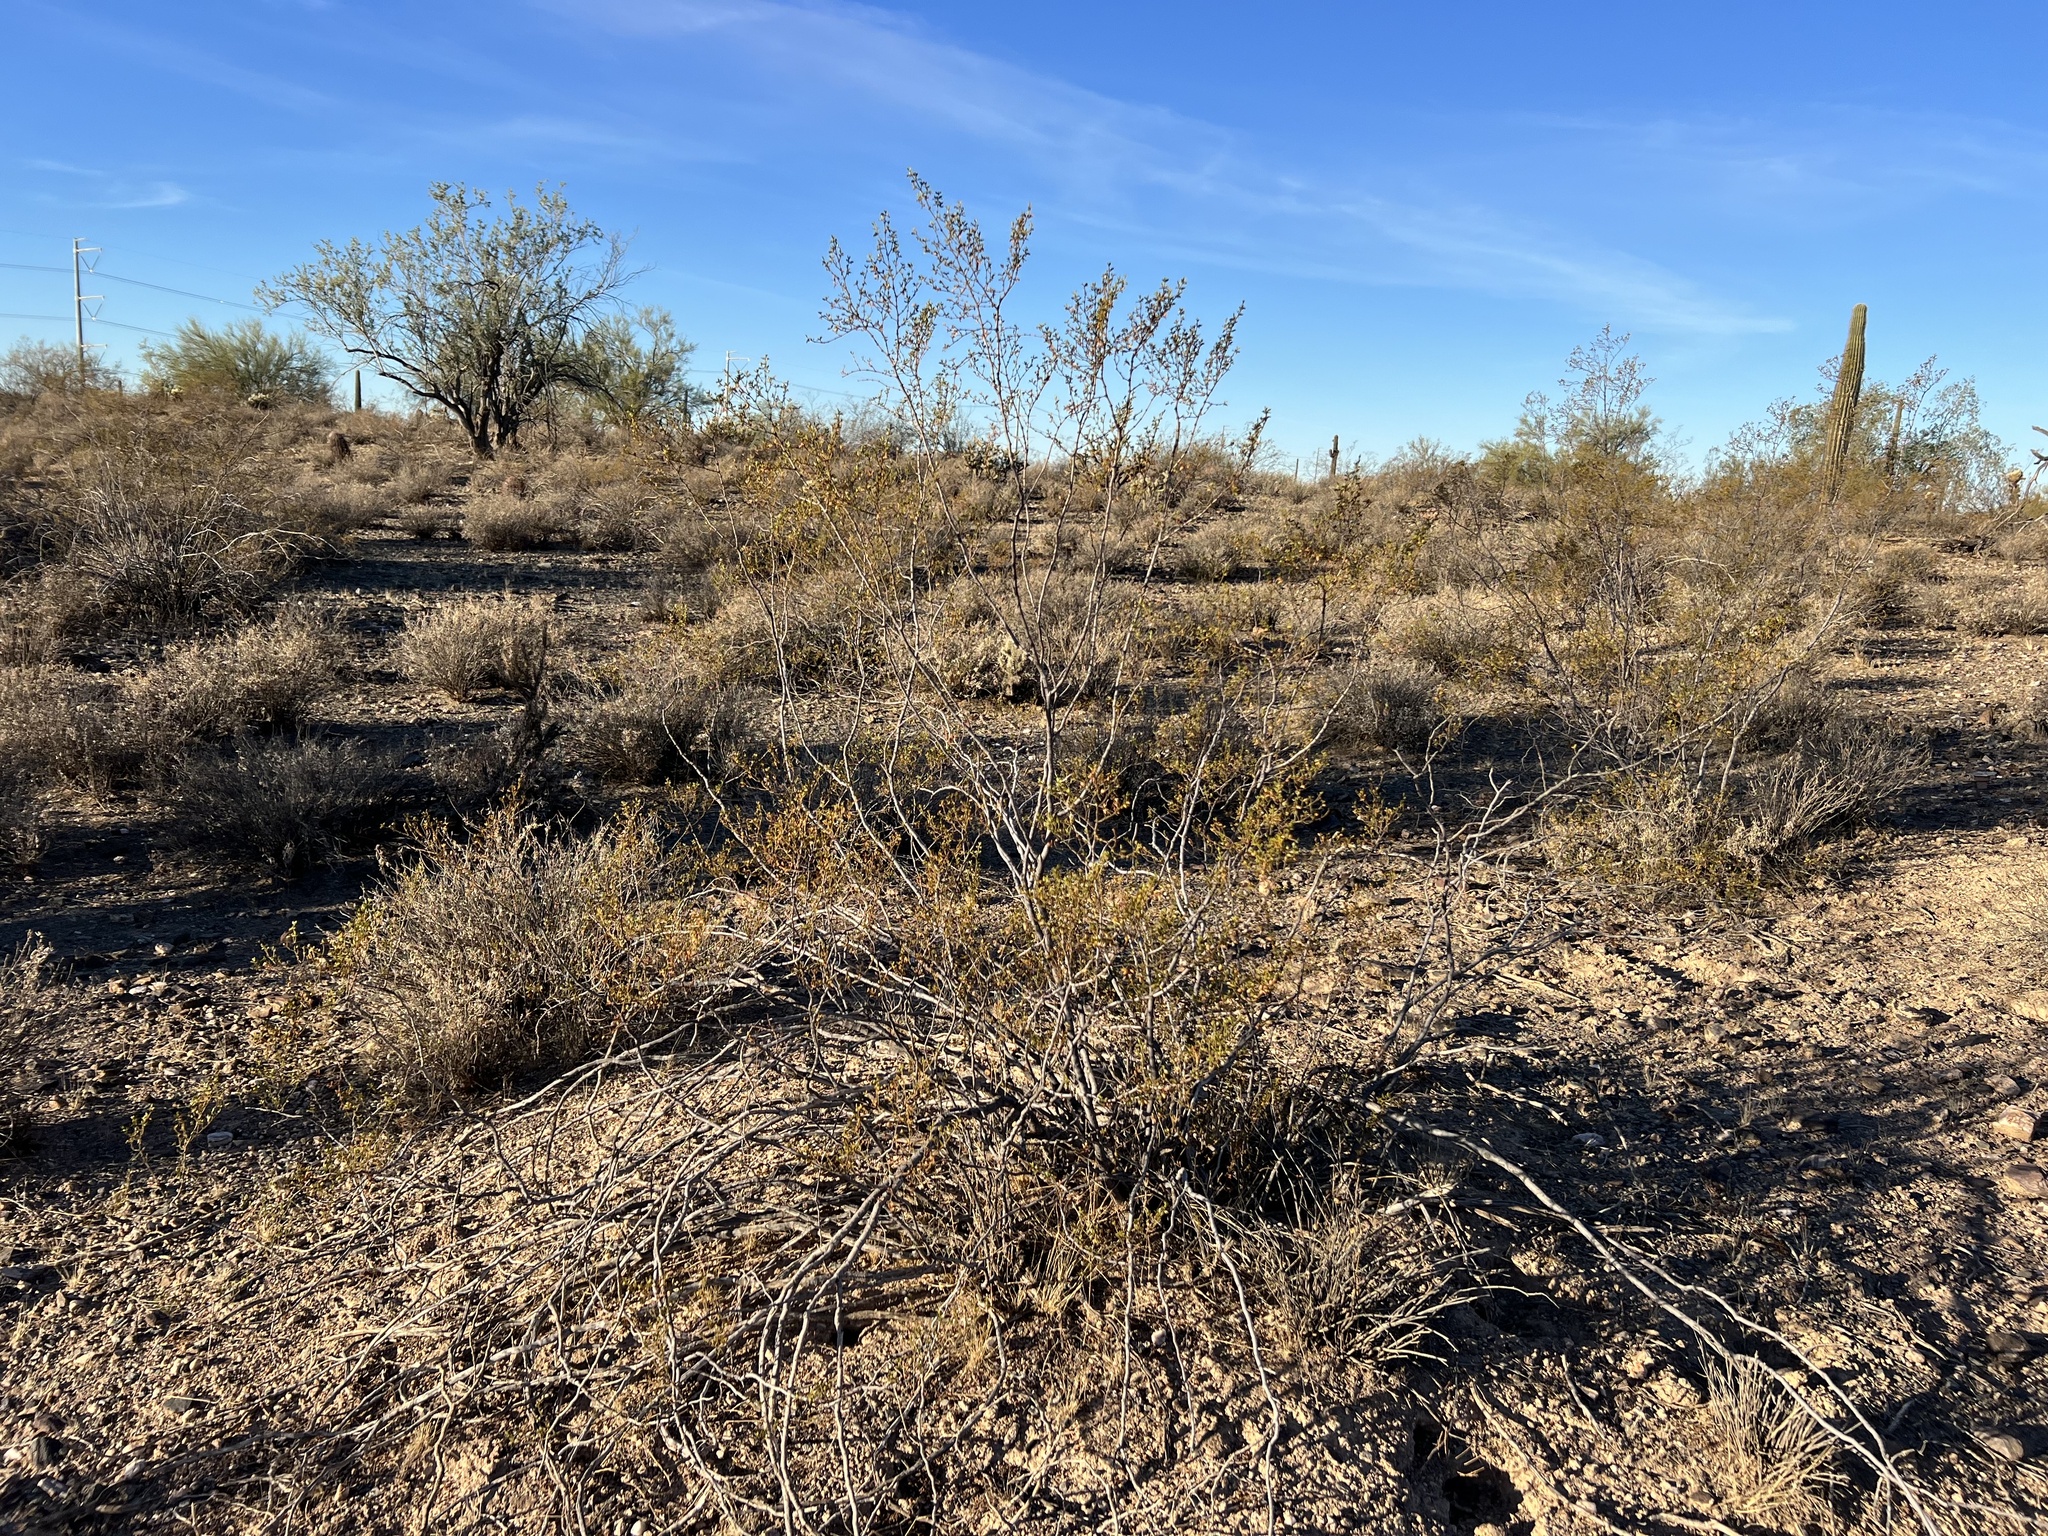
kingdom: Plantae
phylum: Tracheophyta
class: Magnoliopsida
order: Zygophyllales
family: Zygophyllaceae
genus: Larrea
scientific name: Larrea tridentata
